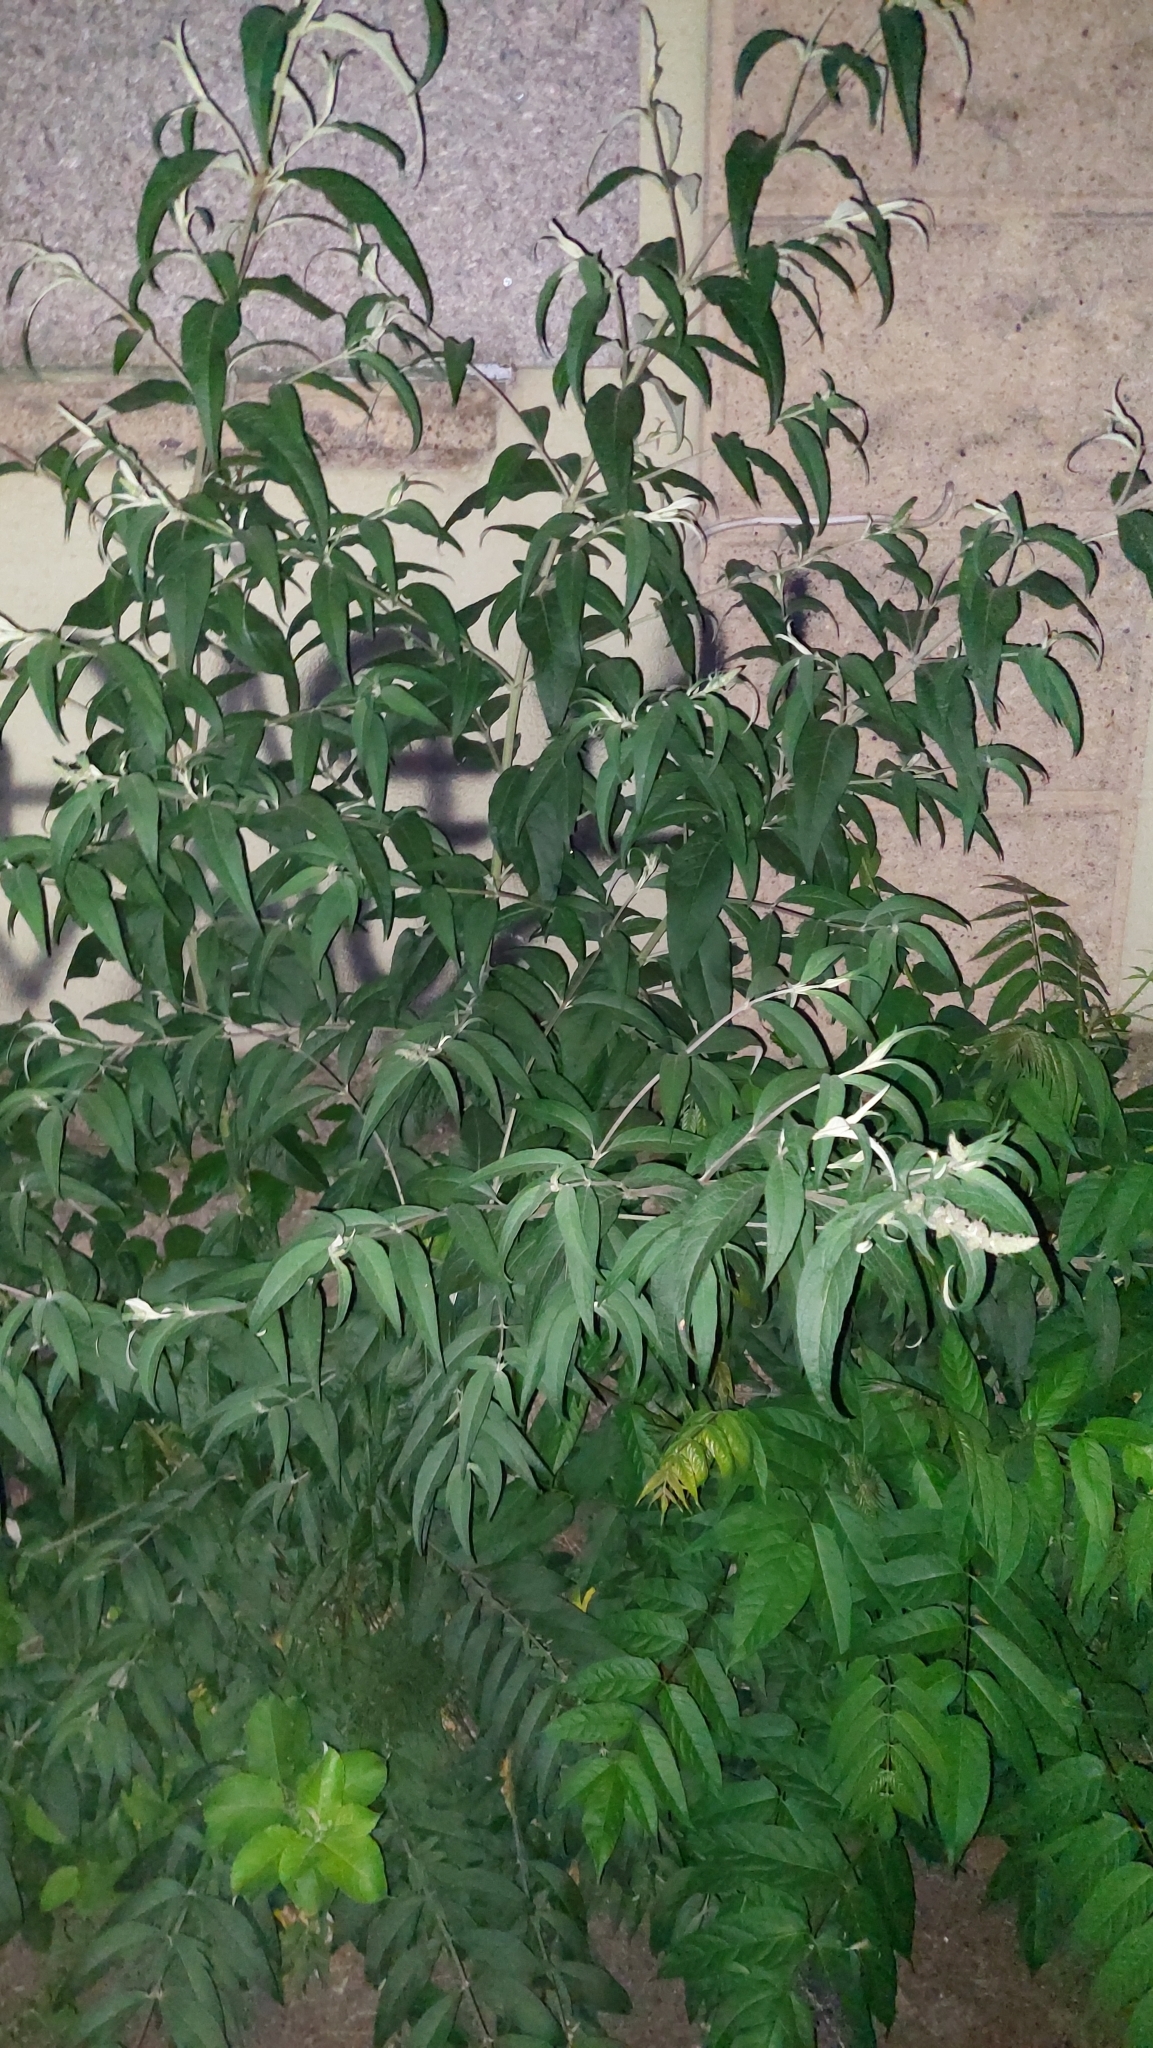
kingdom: Plantae
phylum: Tracheophyta
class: Magnoliopsida
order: Lamiales
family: Scrophulariaceae
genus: Buddleja
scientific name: Buddleja davidii
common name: Butterfly-bush
